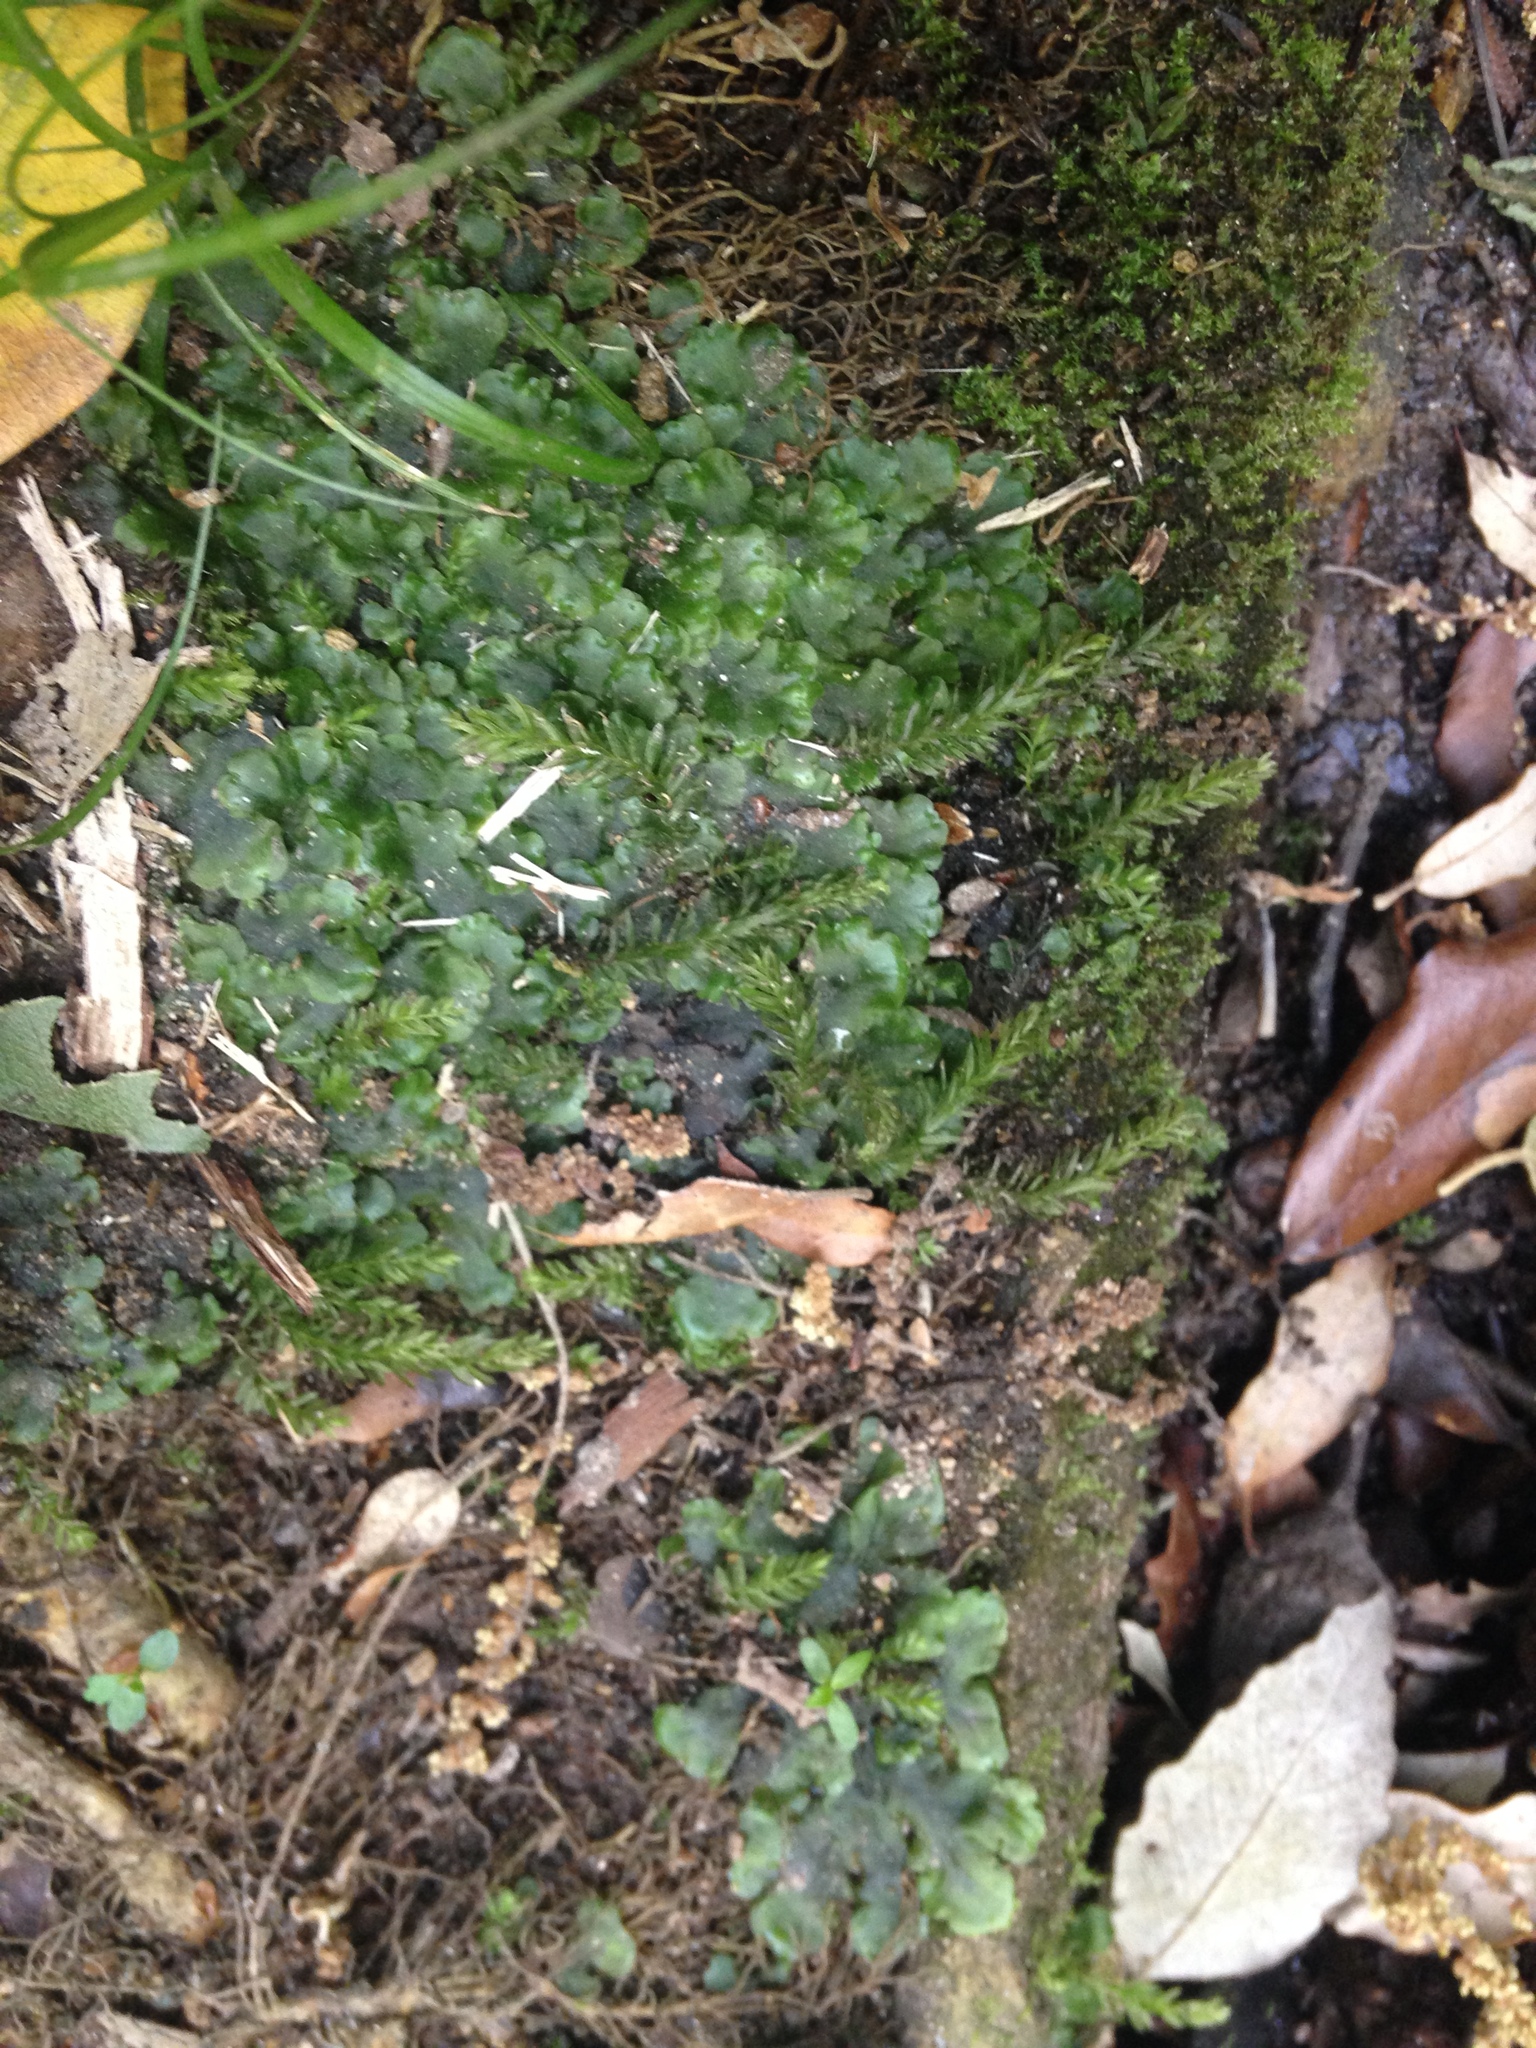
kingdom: Plantae
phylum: Marchantiophyta
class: Jungermanniopsida
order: Pelliales
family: Pelliaceae
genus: Pellia
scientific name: Pellia epiphylla
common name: Common pellia
